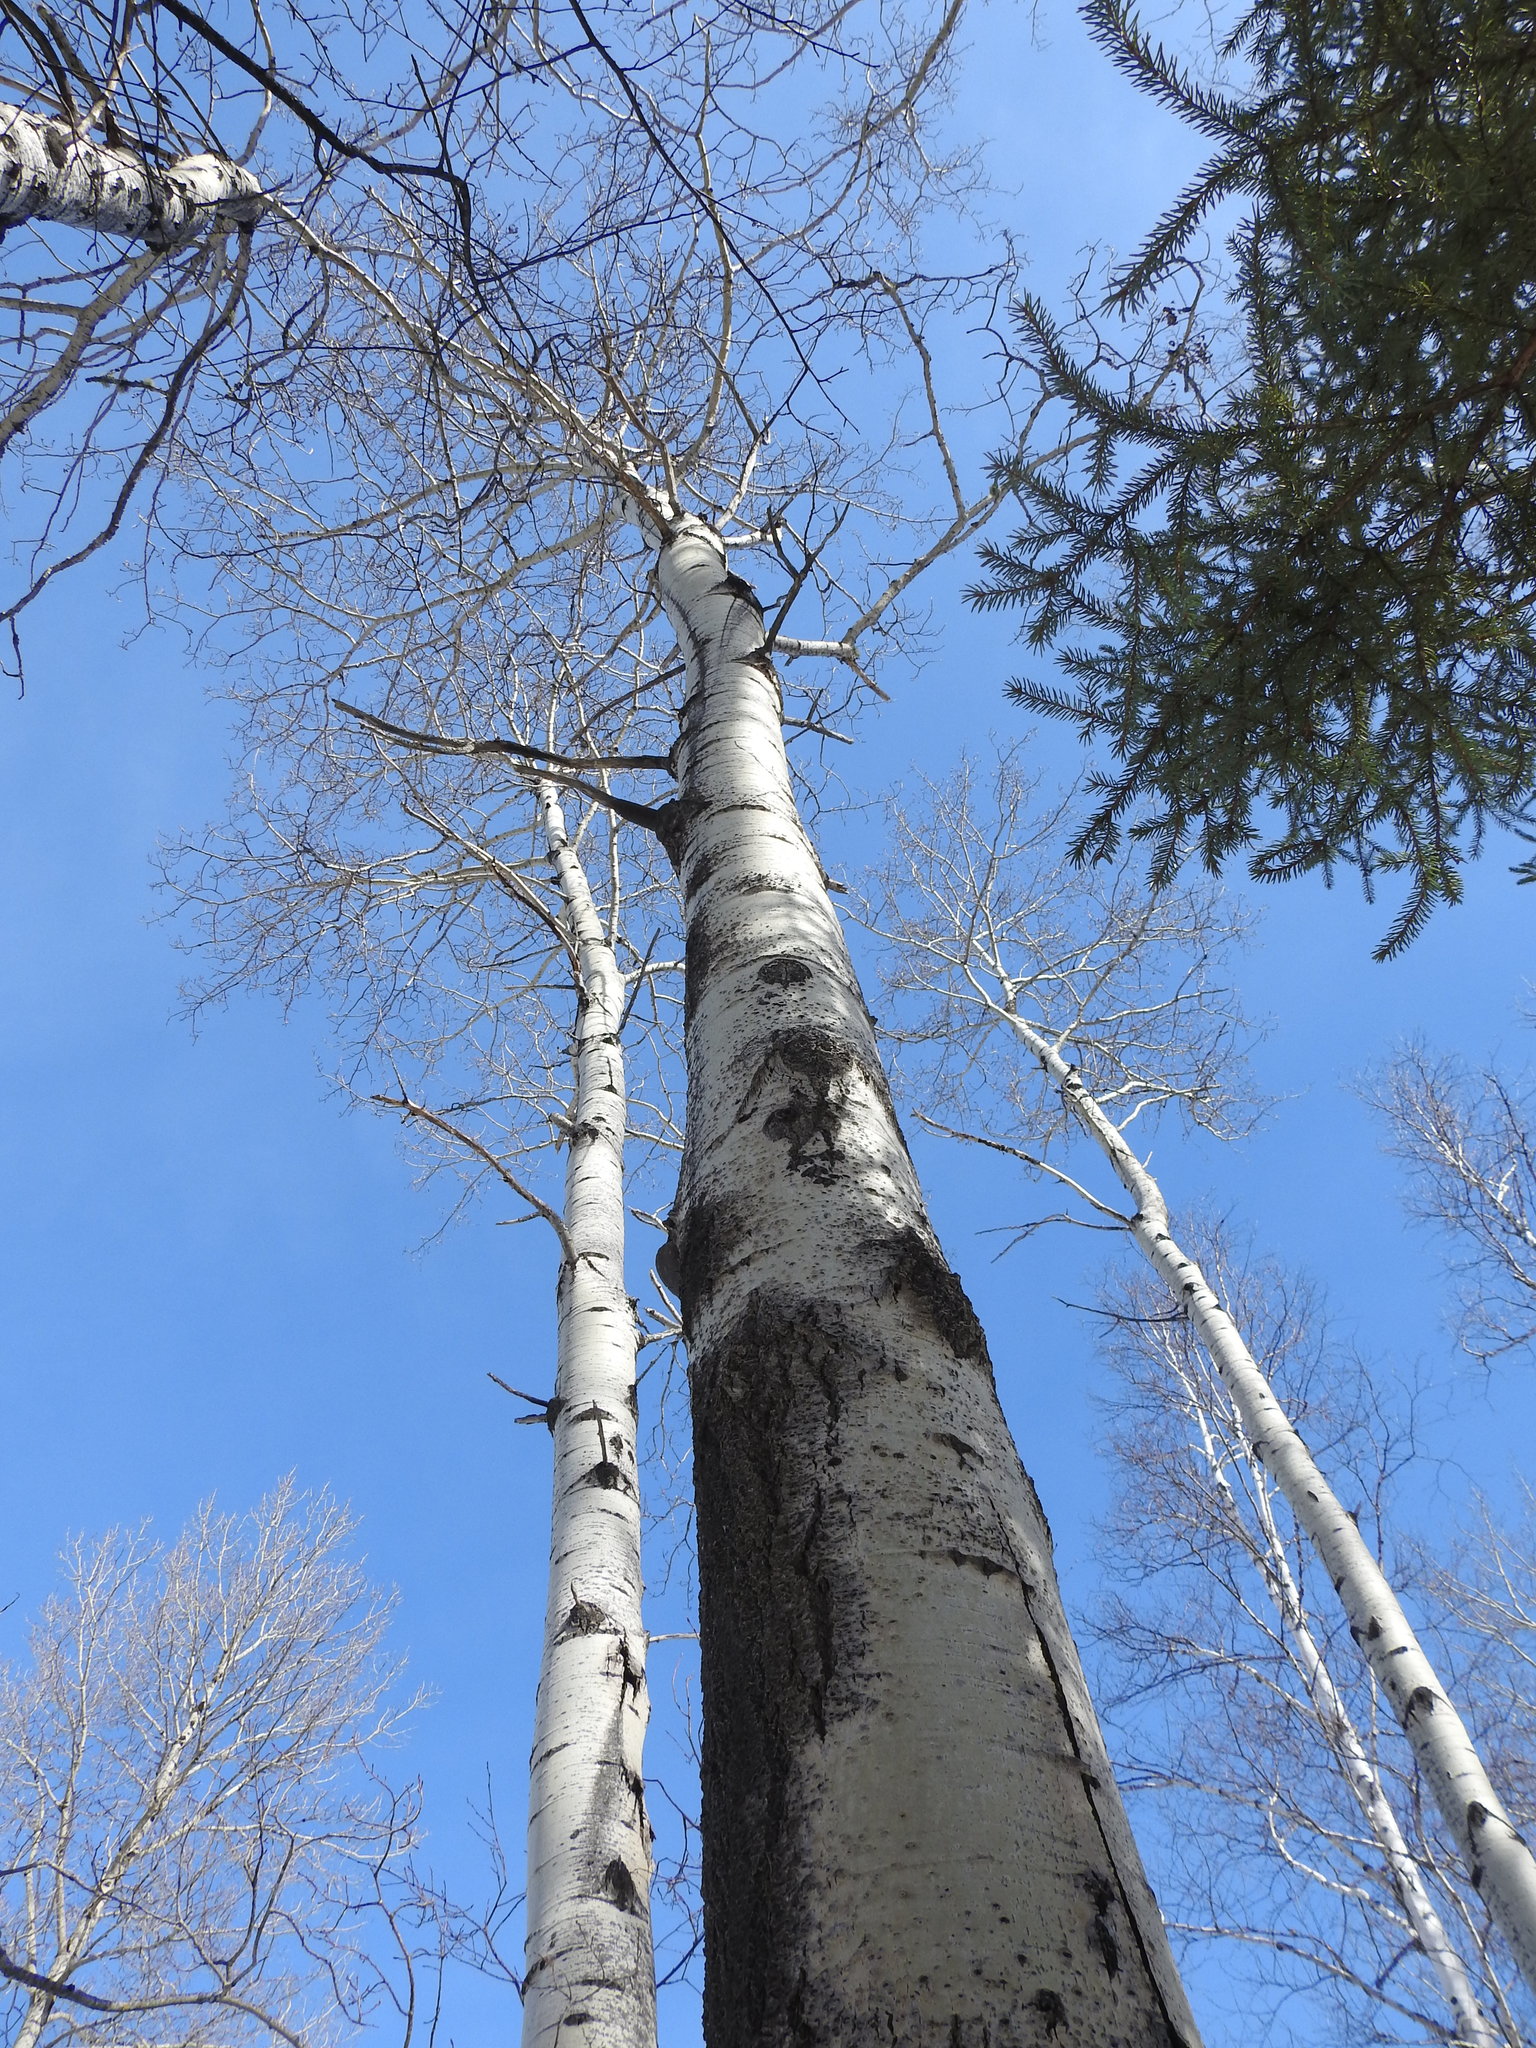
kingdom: Plantae
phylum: Tracheophyta
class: Magnoliopsida
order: Malpighiales
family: Salicaceae
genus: Populus
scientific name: Populus tremuloides
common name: Quaking aspen
